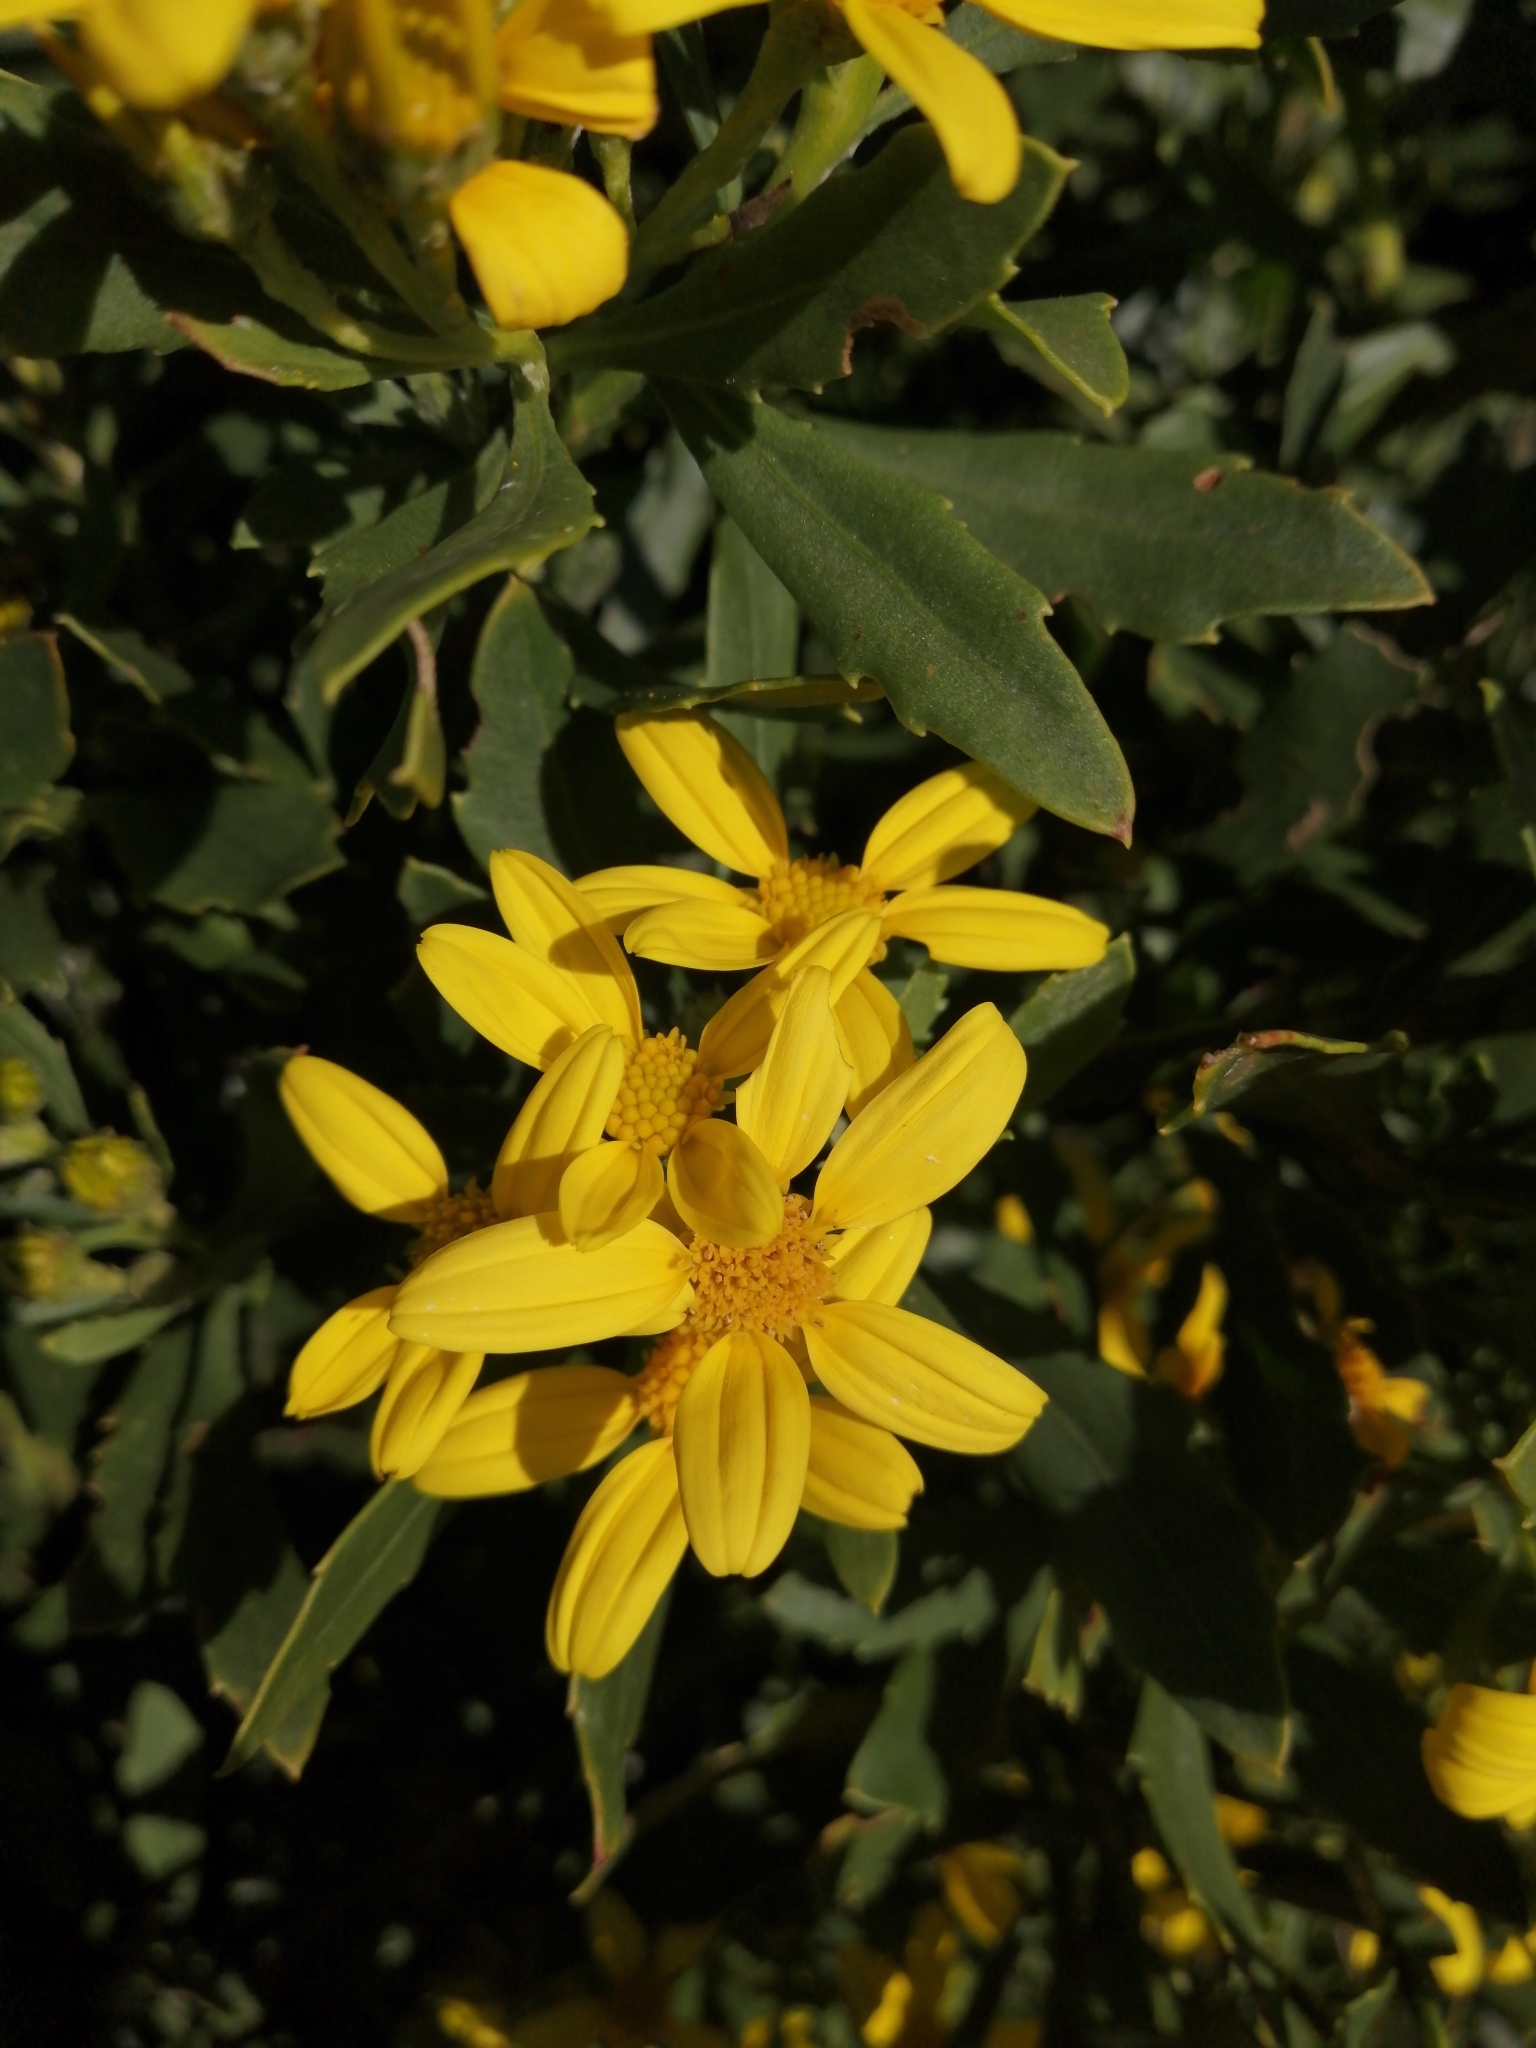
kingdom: Plantae
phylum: Tracheophyta
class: Magnoliopsida
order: Asterales
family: Asteraceae
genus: Osteospermum
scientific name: Osteospermum moniliferum
